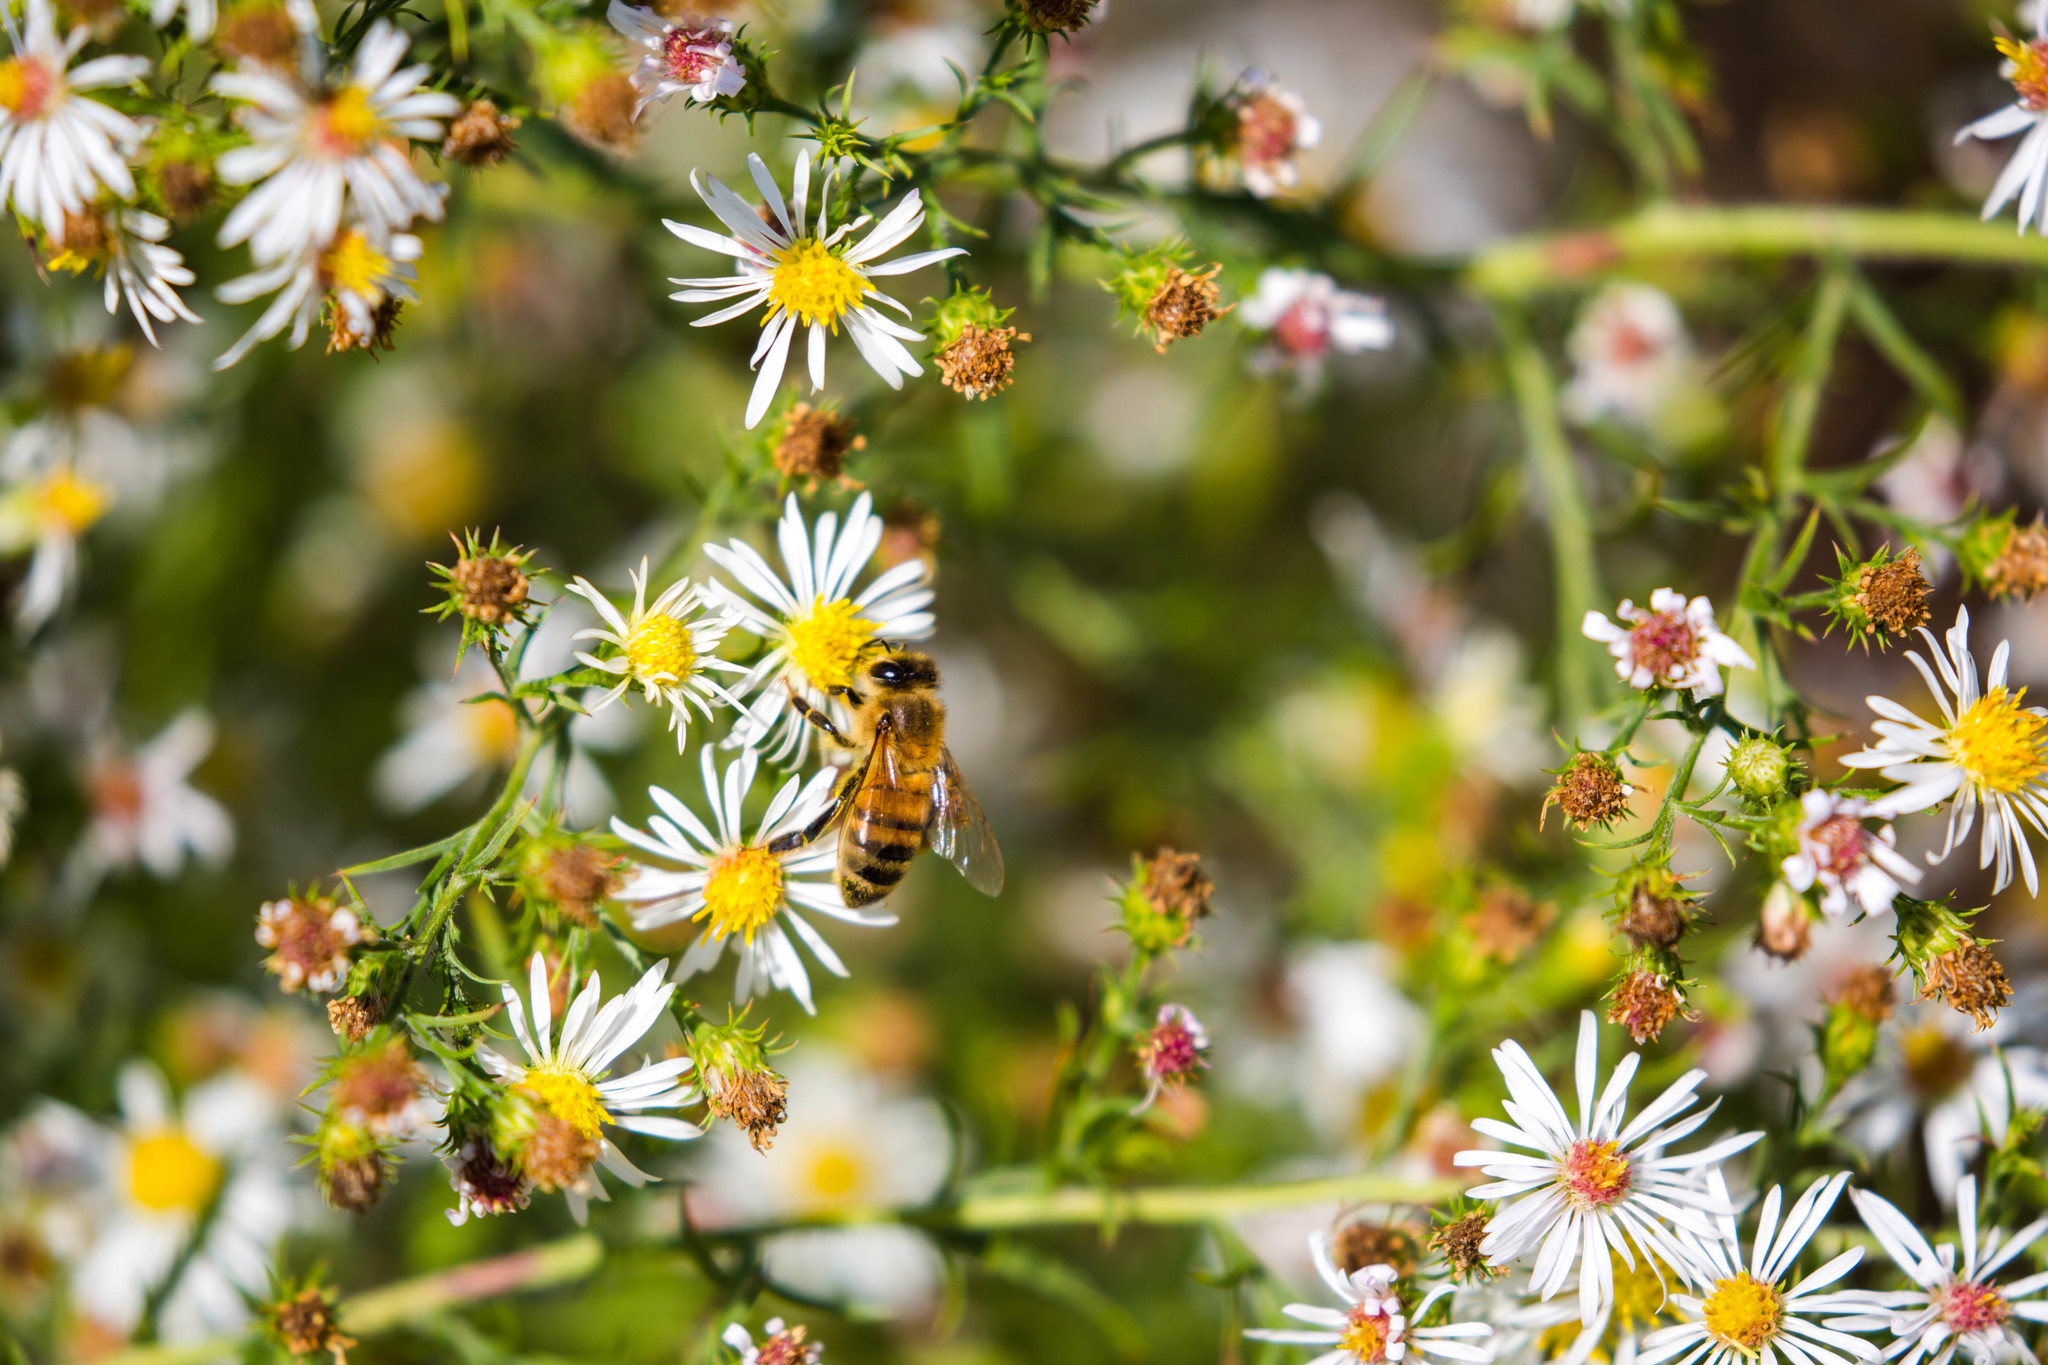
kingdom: Animalia
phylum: Arthropoda
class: Insecta
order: Hymenoptera
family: Apidae
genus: Apis
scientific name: Apis mellifera
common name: Honey bee
